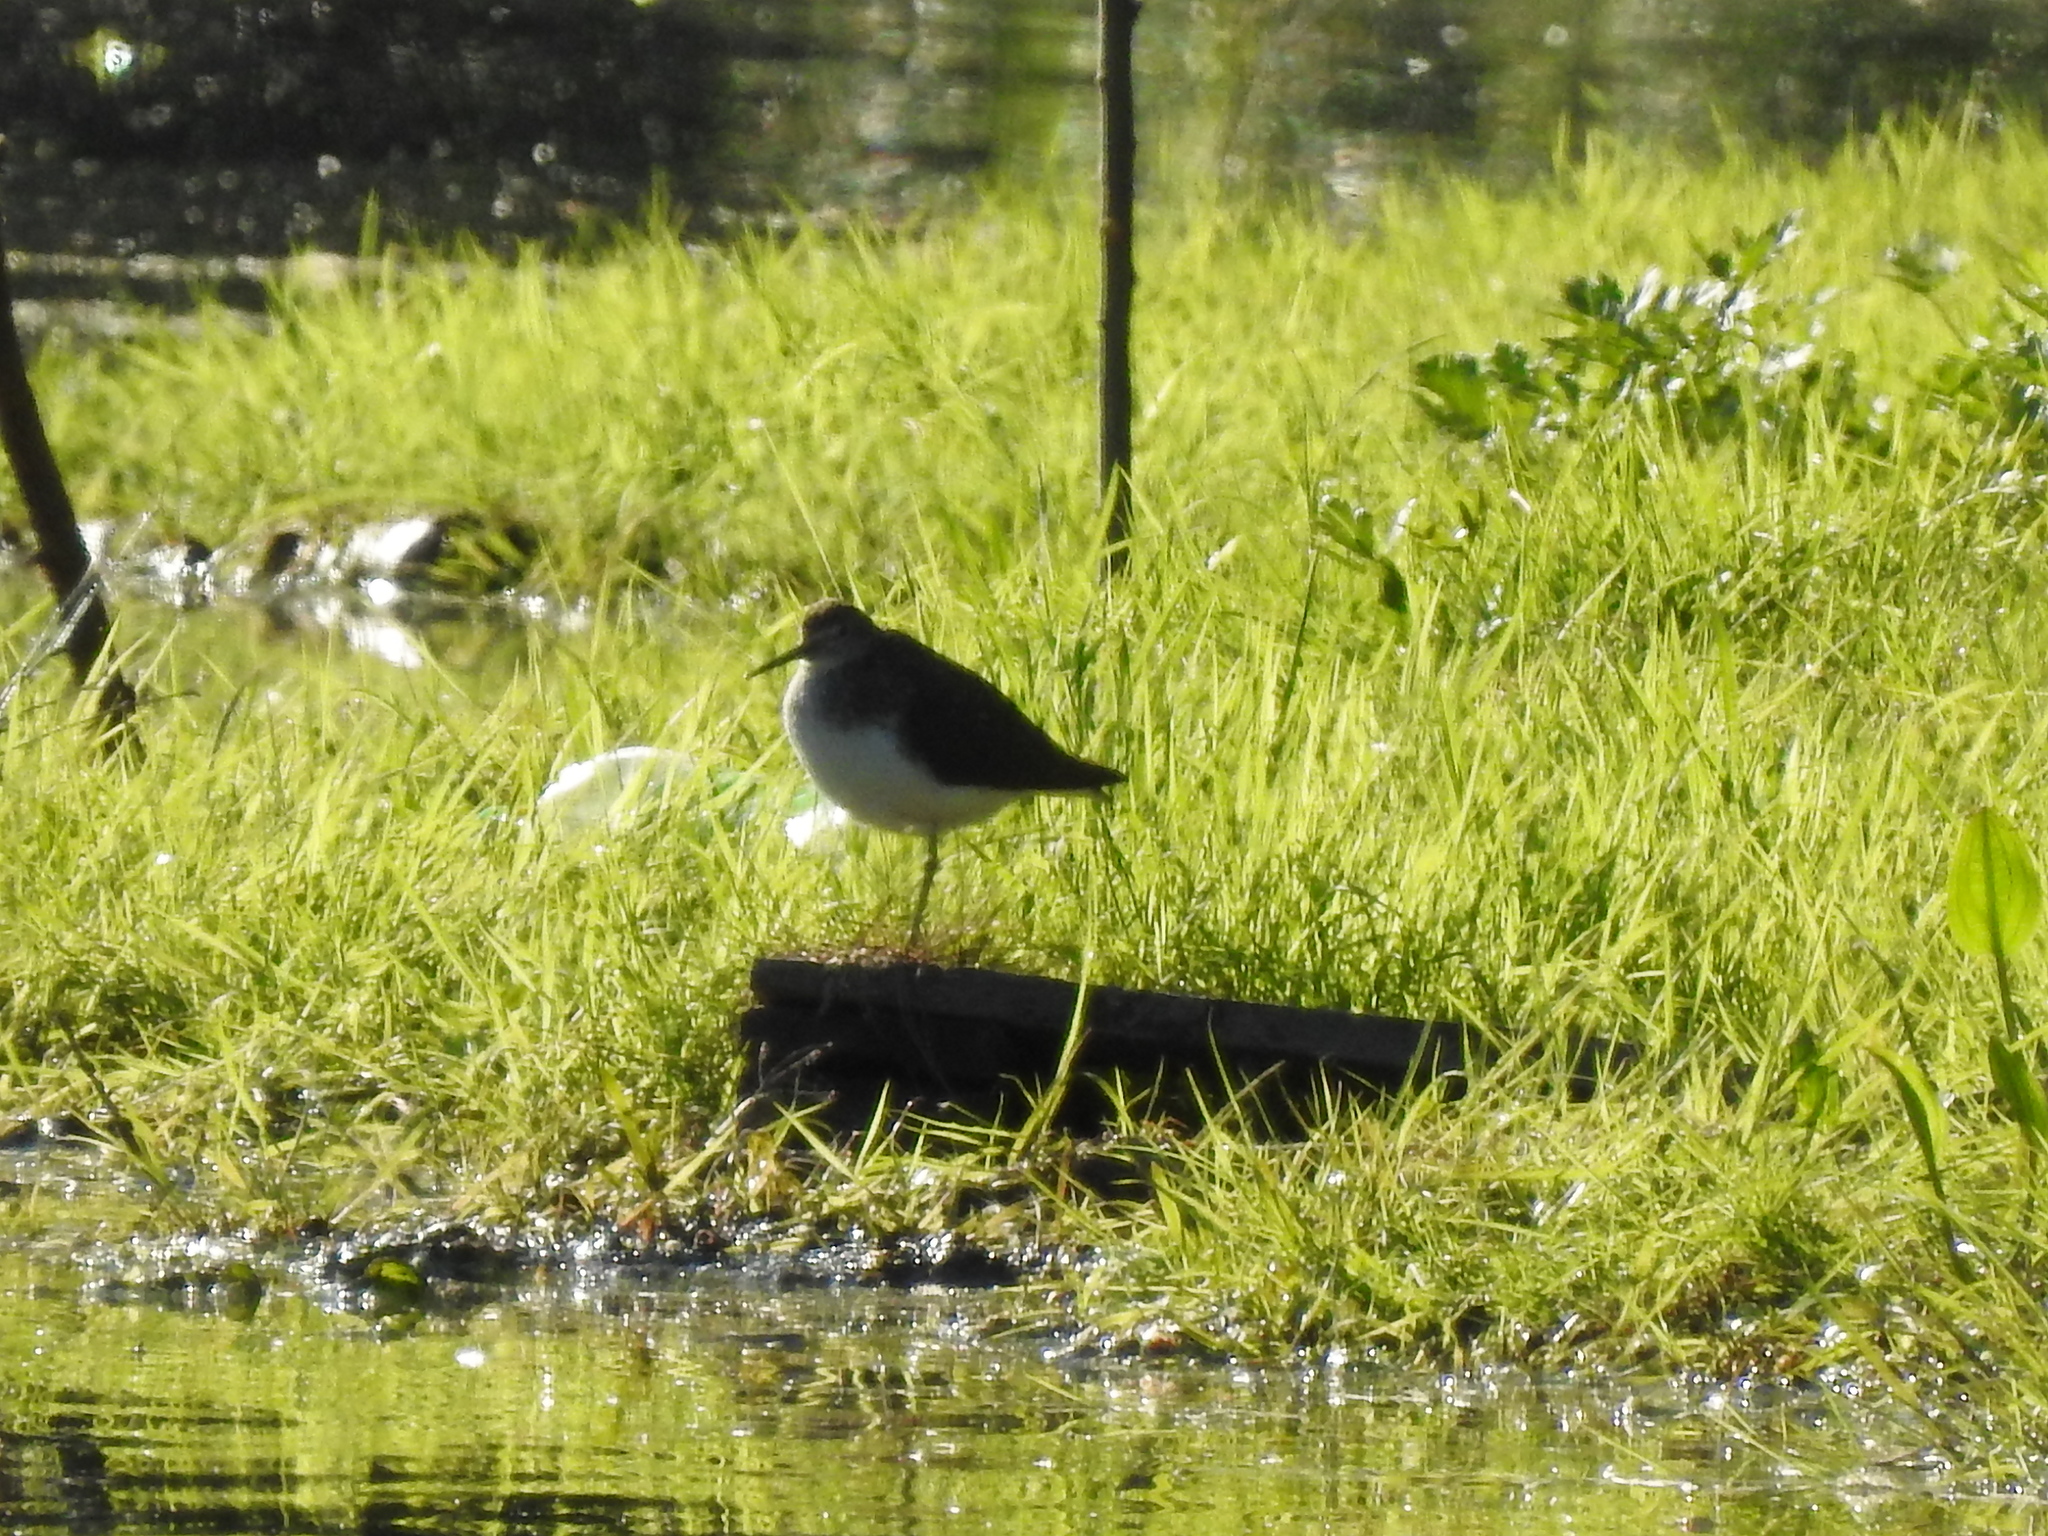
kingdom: Animalia
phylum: Chordata
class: Aves
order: Charadriiformes
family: Scolopacidae
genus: Tringa
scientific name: Tringa ochropus
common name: Green sandpiper
